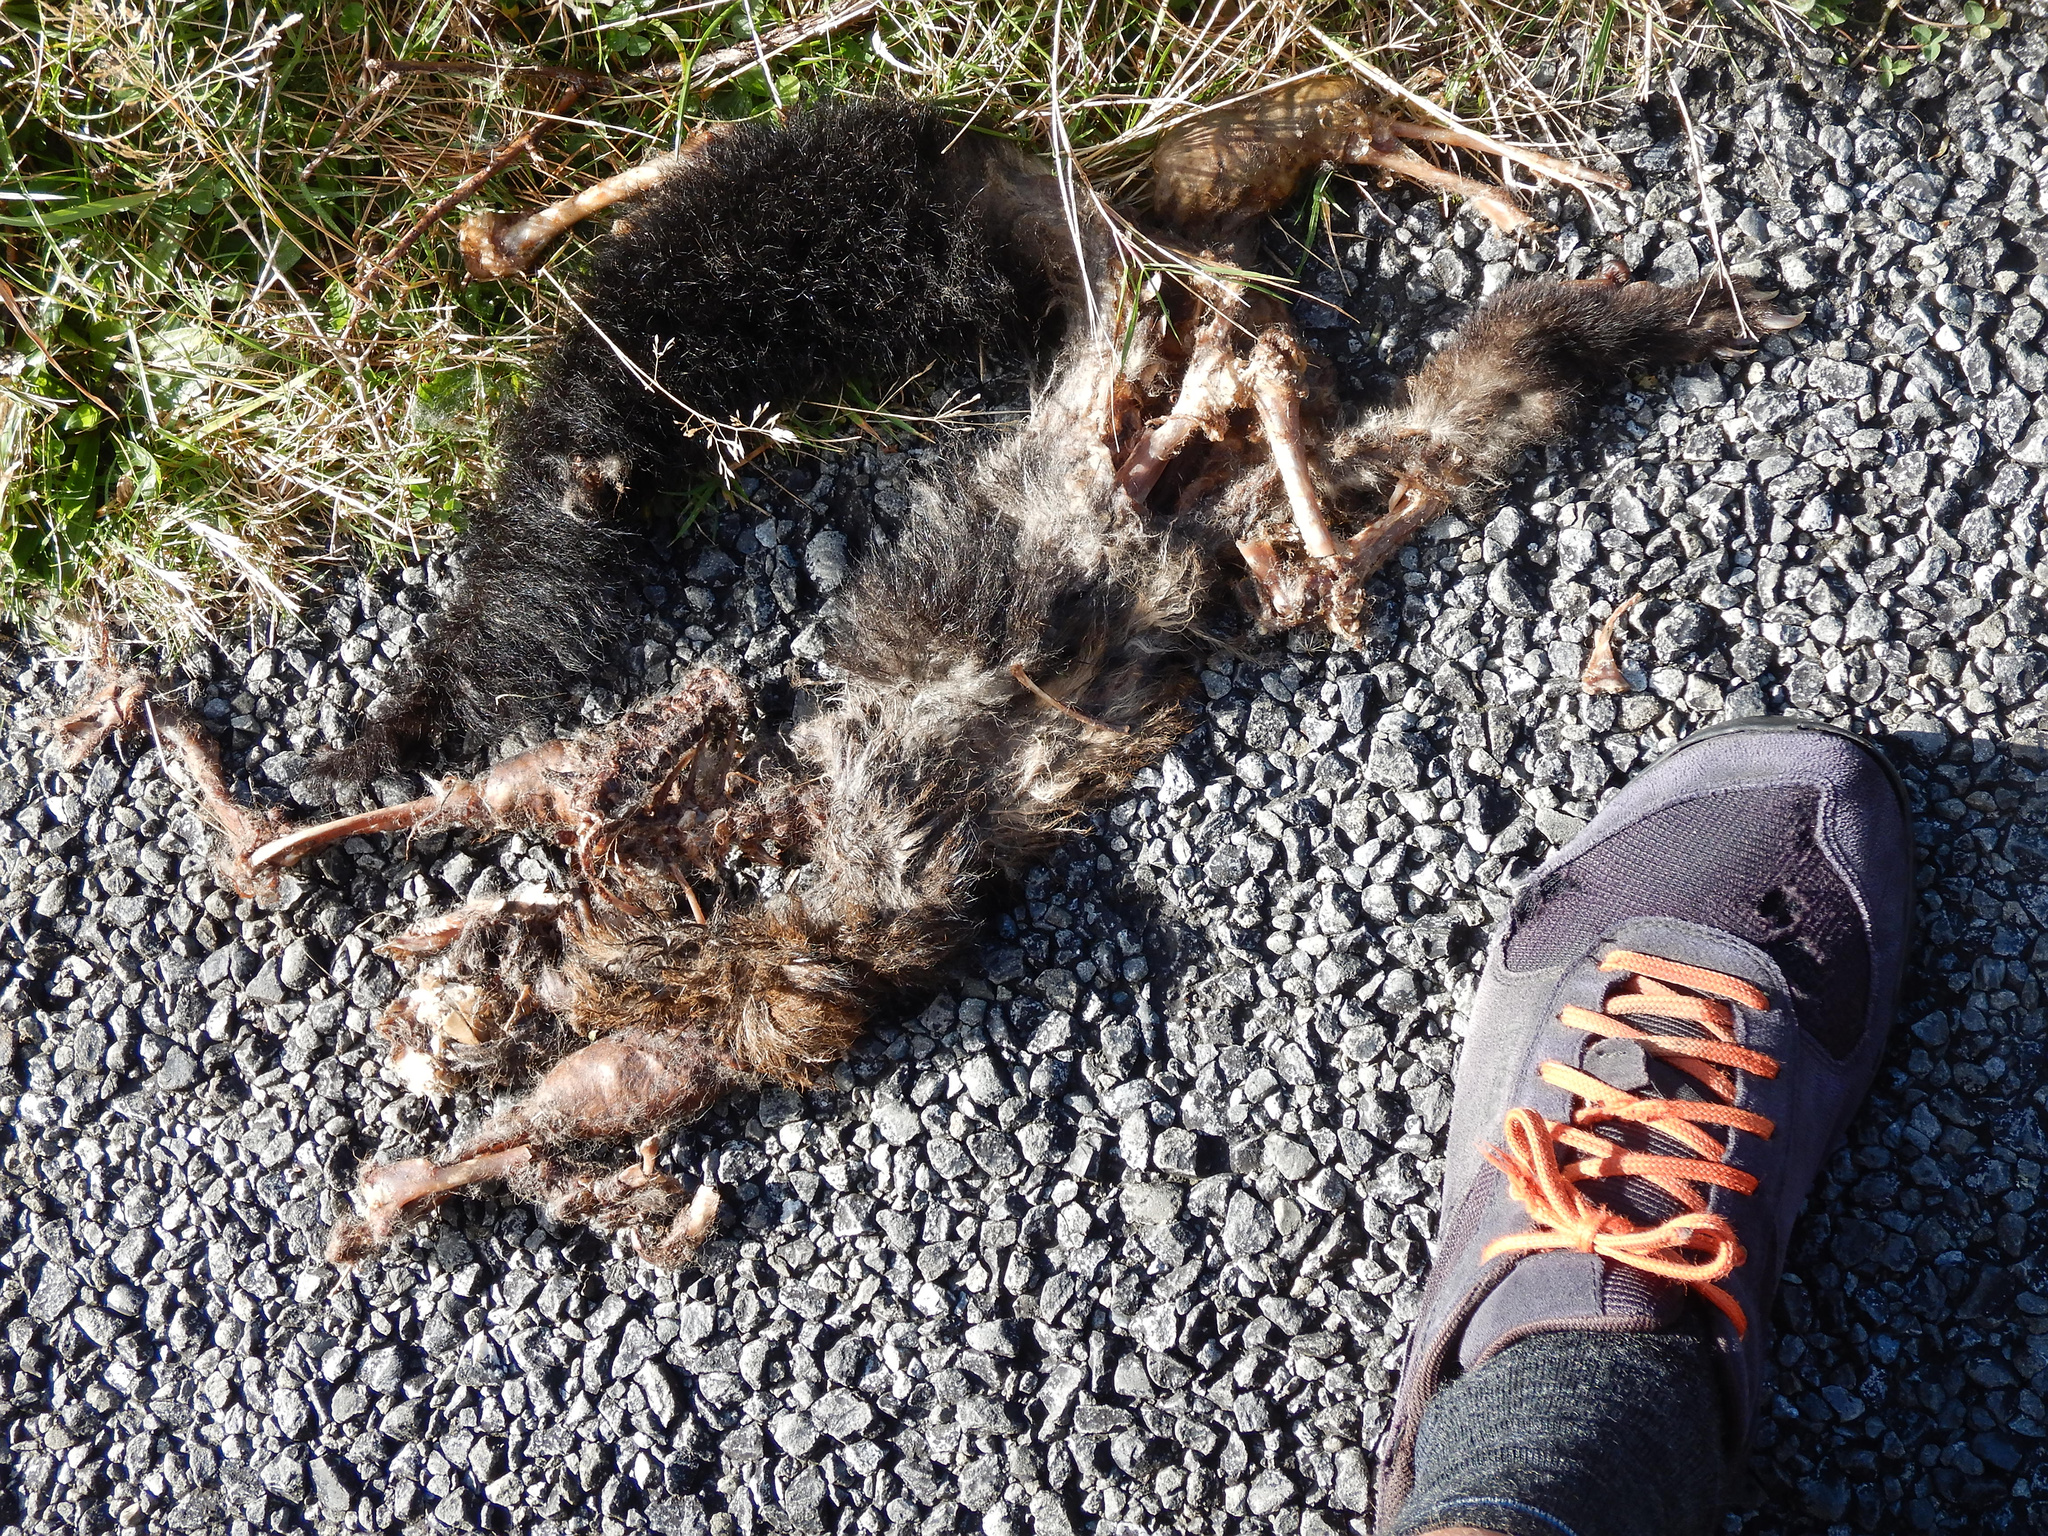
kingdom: Animalia
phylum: Chordata
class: Mammalia
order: Diprotodontia
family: Phalangeridae
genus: Trichosurus
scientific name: Trichosurus vulpecula
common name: Common brushtail
